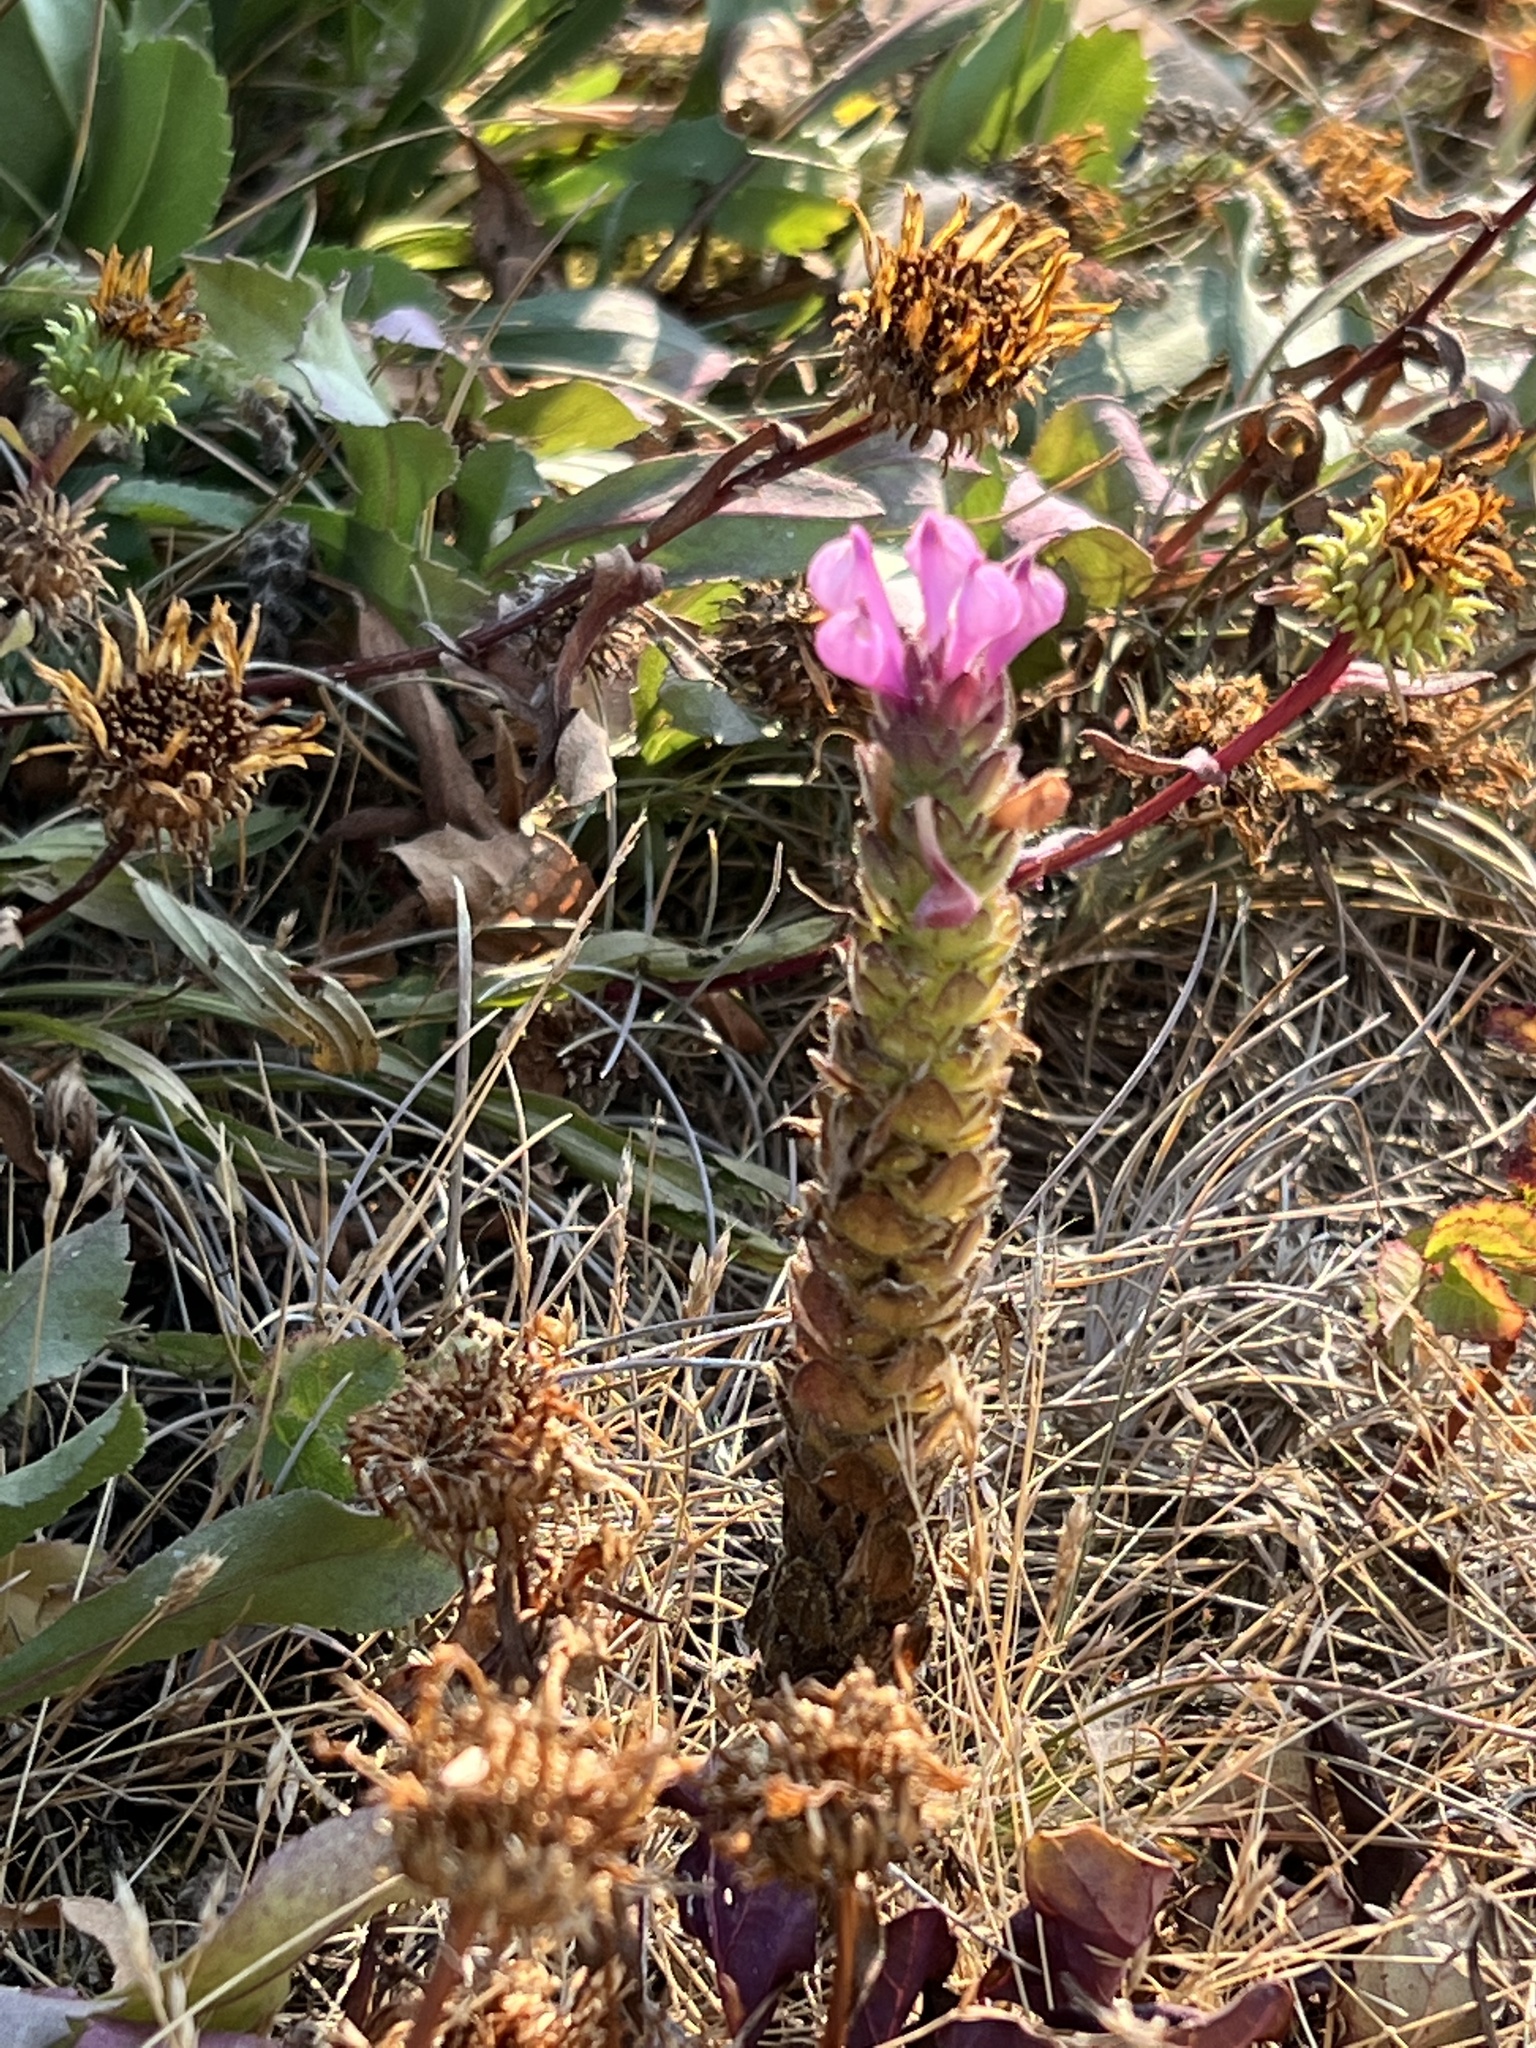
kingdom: Plantae
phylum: Tracheophyta
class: Magnoliopsida
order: Lamiales
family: Orobanchaceae
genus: Orthocarpus
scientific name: Orthocarpus bracteosus
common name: Rosy owl's-clover
